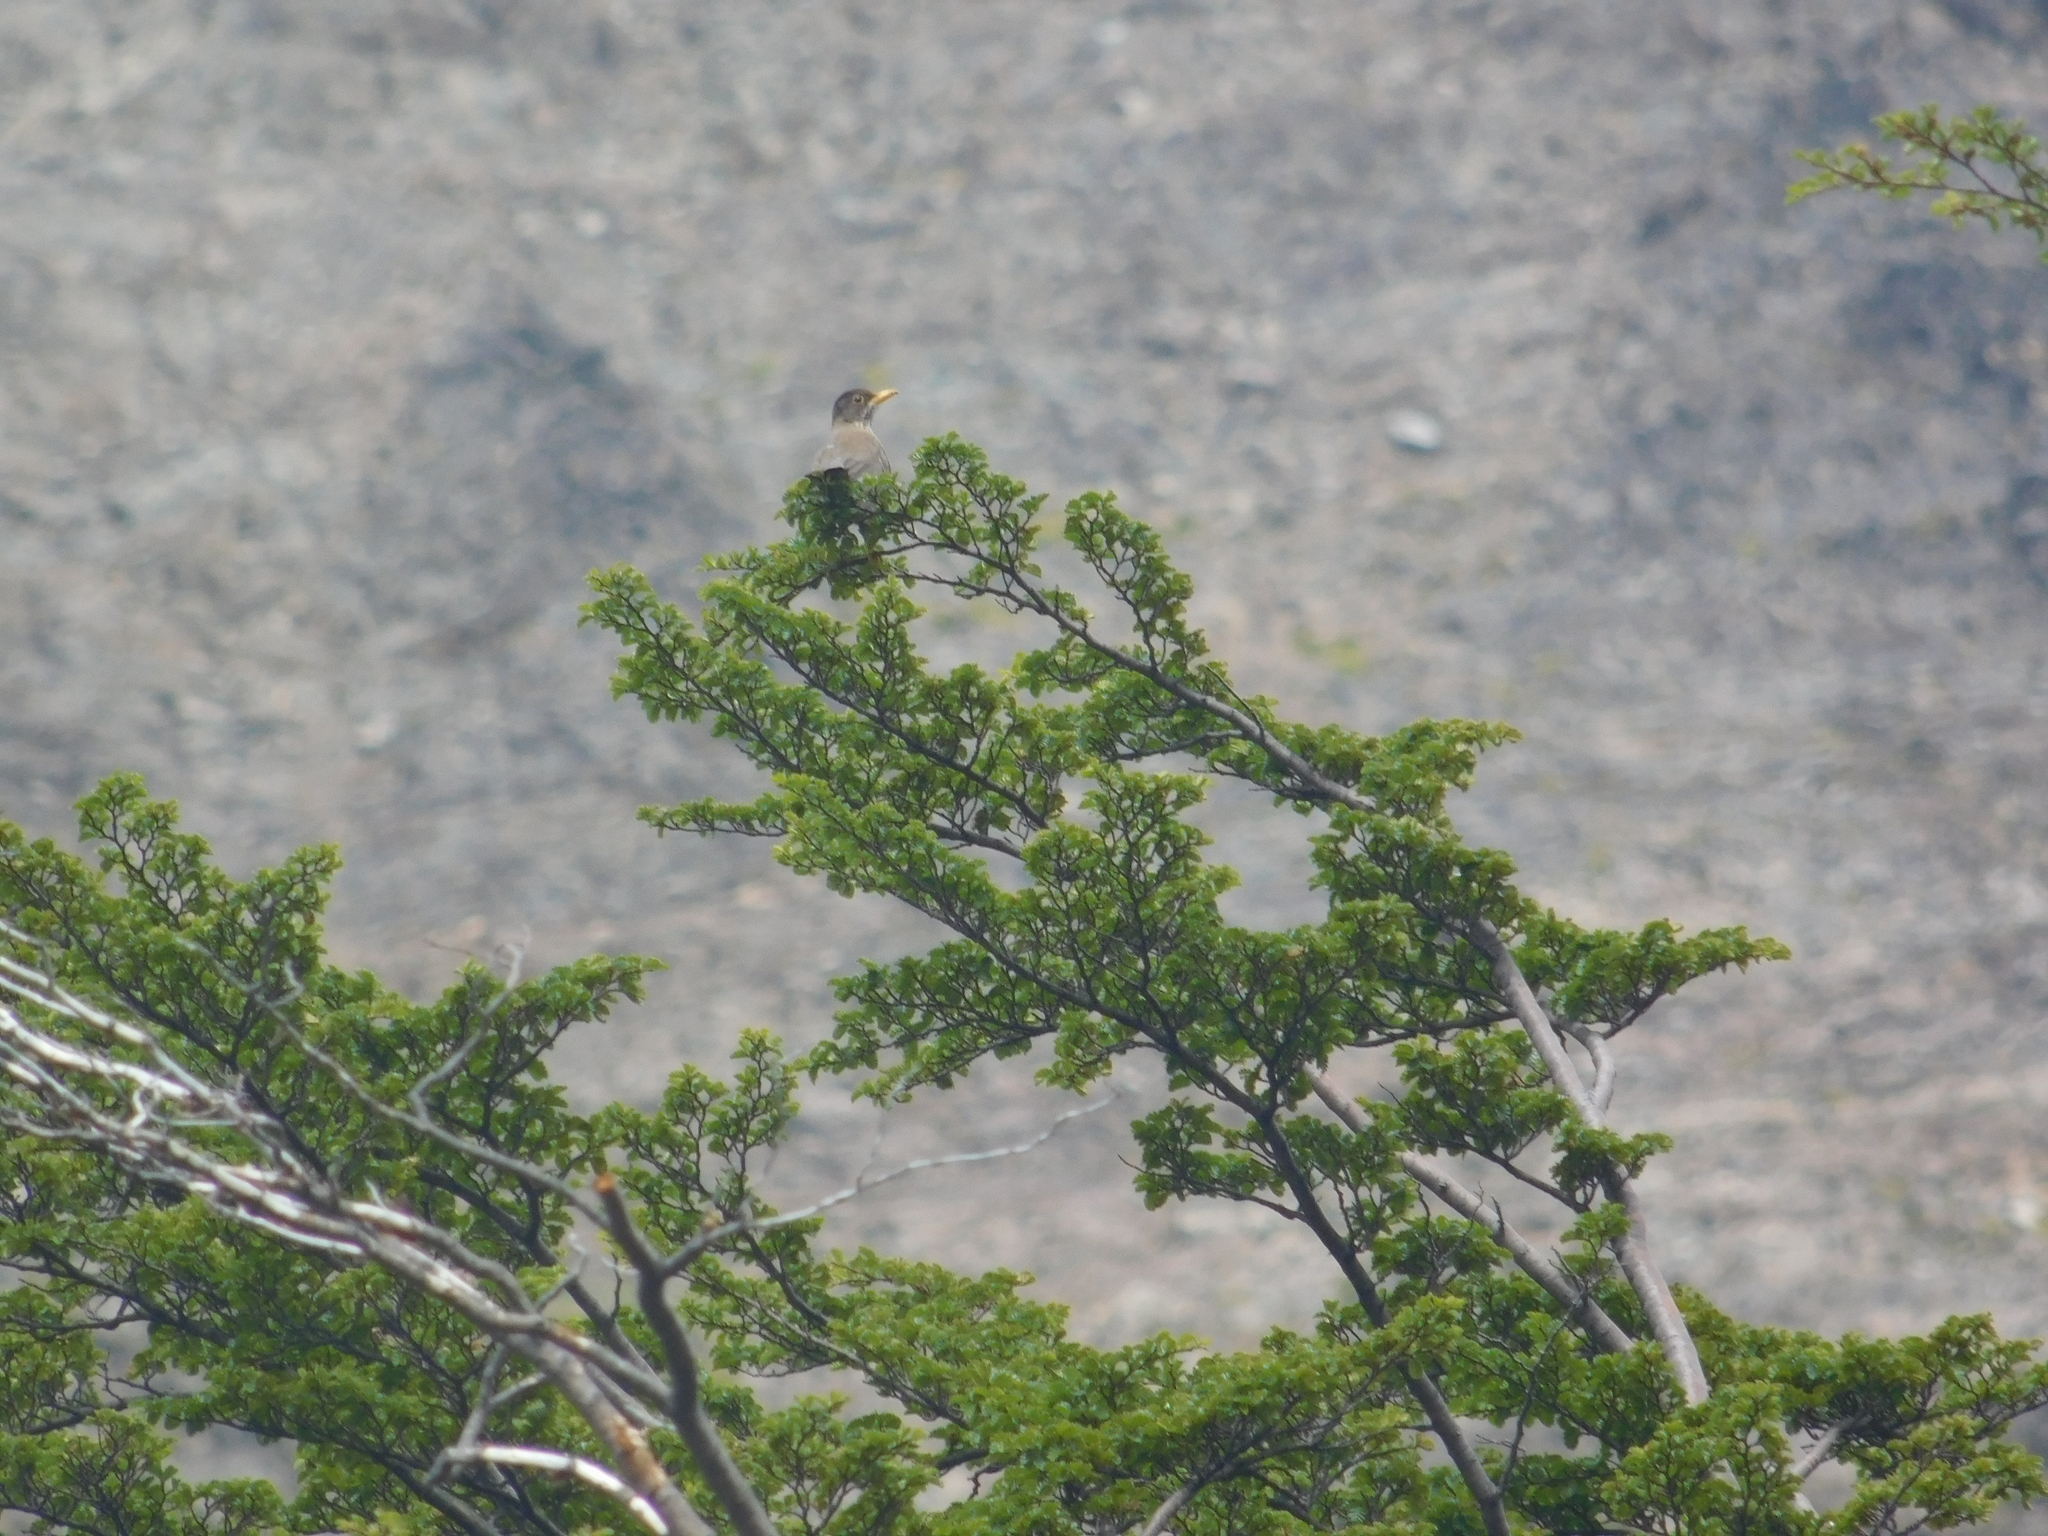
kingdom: Animalia
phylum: Chordata
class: Aves
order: Passeriformes
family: Turdidae
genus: Turdus
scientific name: Turdus falcklandii
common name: Austral thrush
